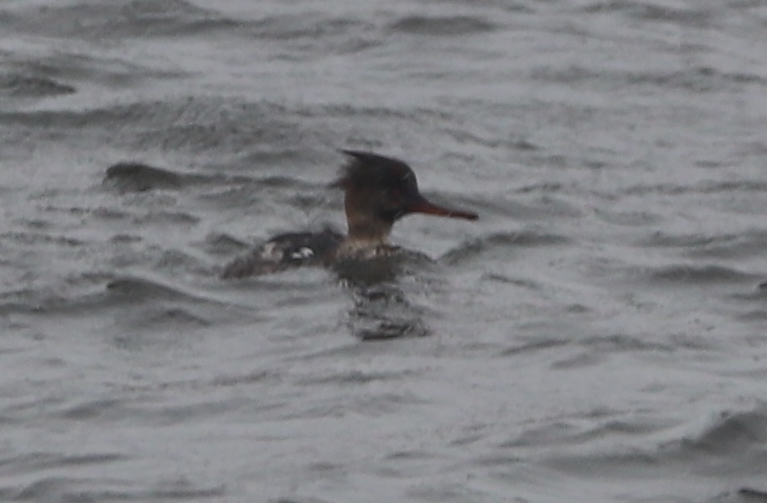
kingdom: Animalia
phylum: Chordata
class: Aves
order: Anseriformes
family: Anatidae
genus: Mergus
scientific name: Mergus serrator
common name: Red-breasted merganser
